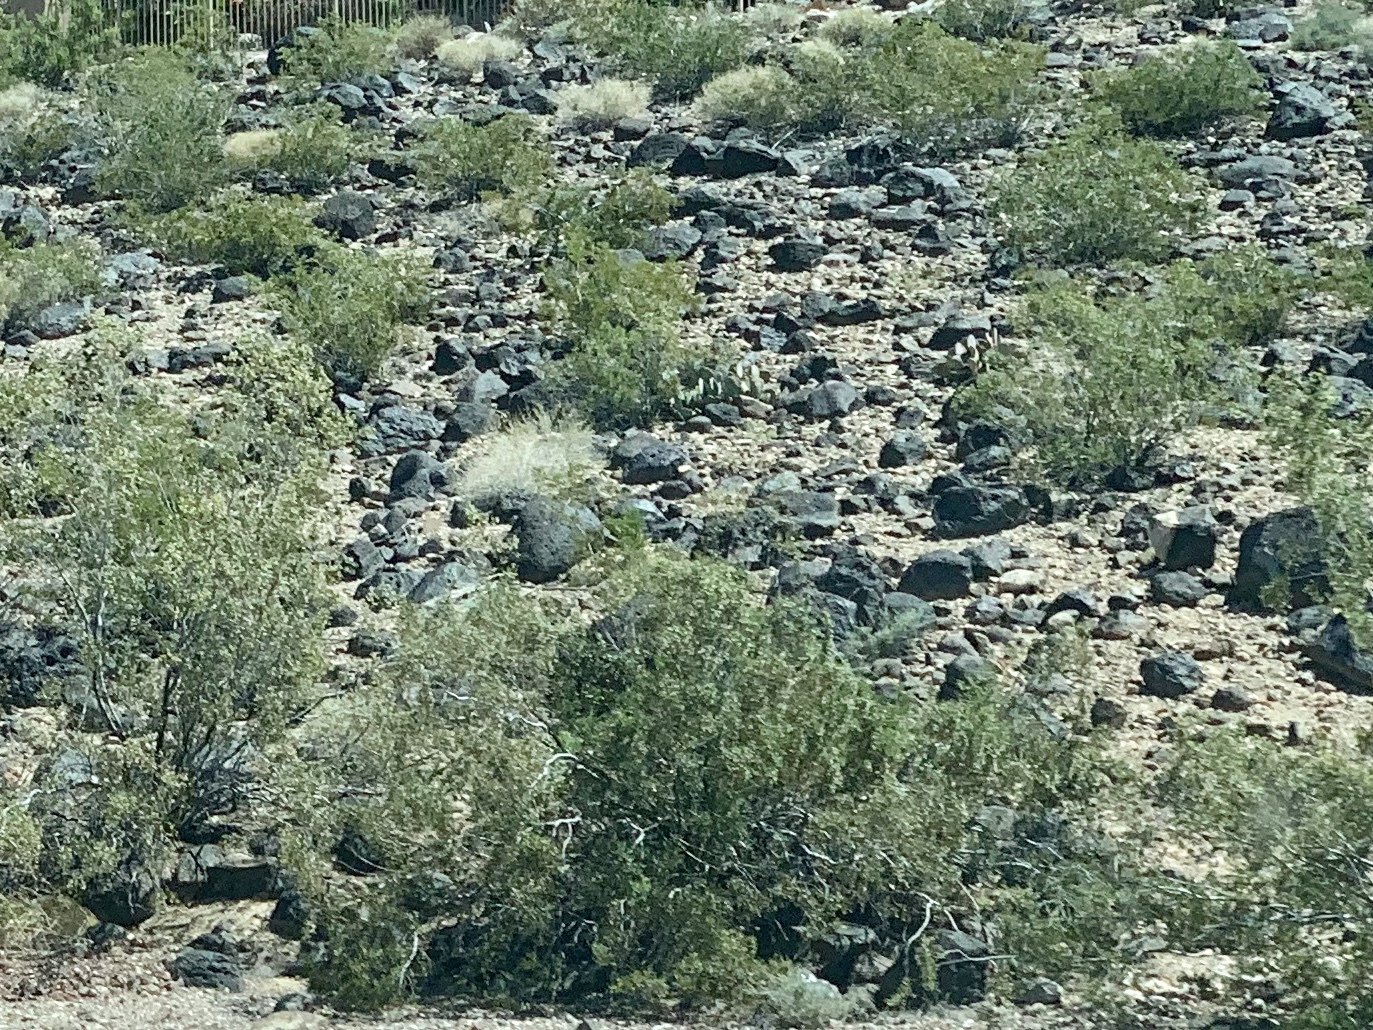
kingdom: Plantae
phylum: Tracheophyta
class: Magnoliopsida
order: Zygophyllales
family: Zygophyllaceae
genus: Larrea
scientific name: Larrea tridentata
